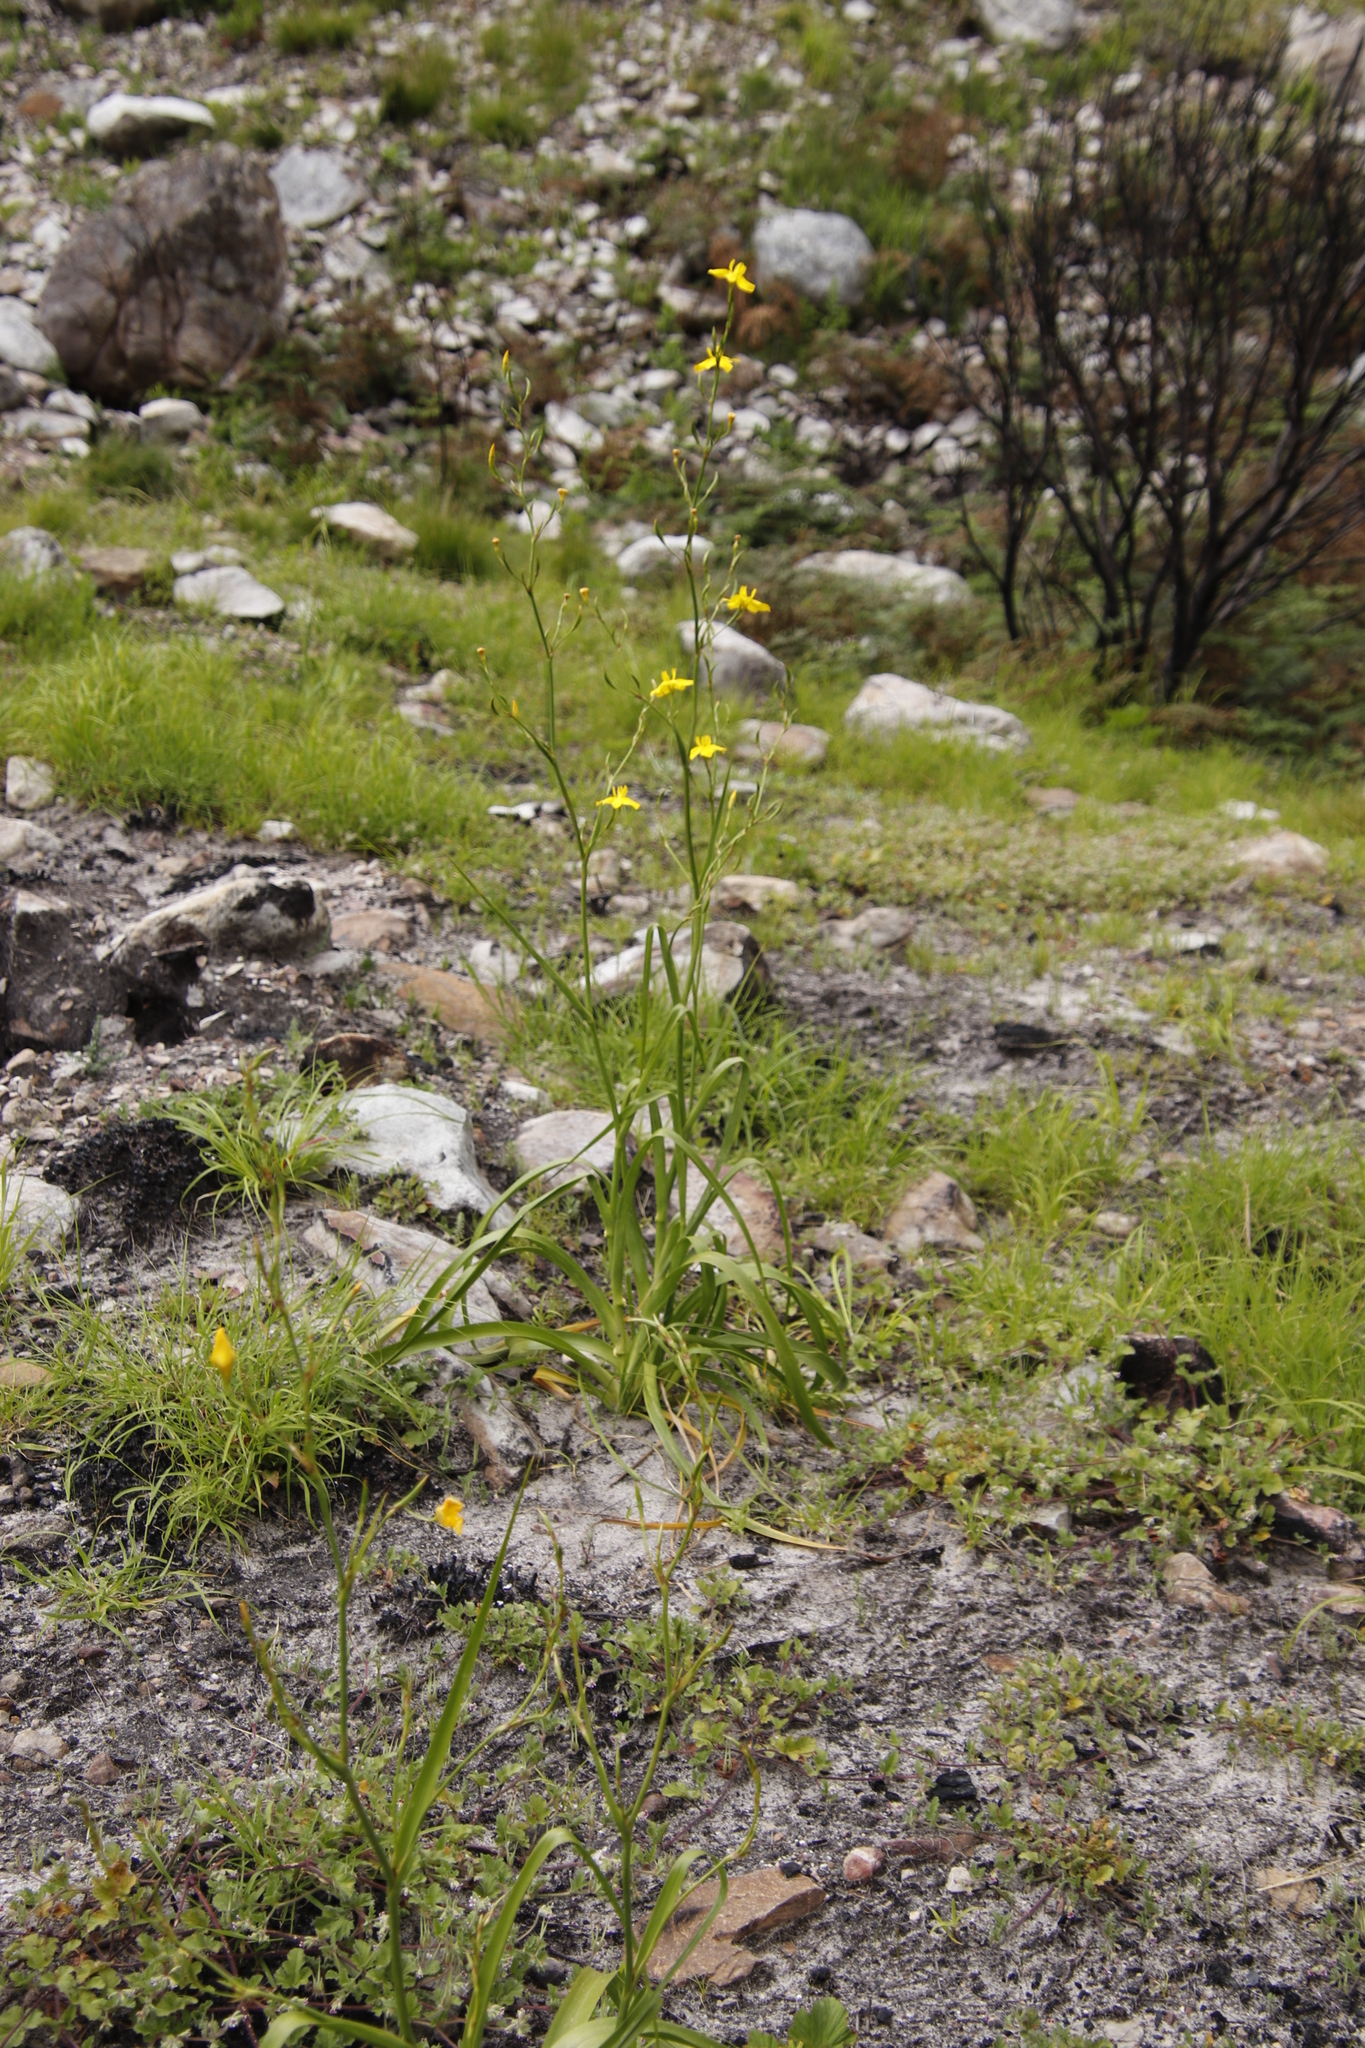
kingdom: Plantae
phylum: Tracheophyta
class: Liliopsida
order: Asparagales
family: Iridaceae
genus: Moraea
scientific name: Moraea ramosissima
